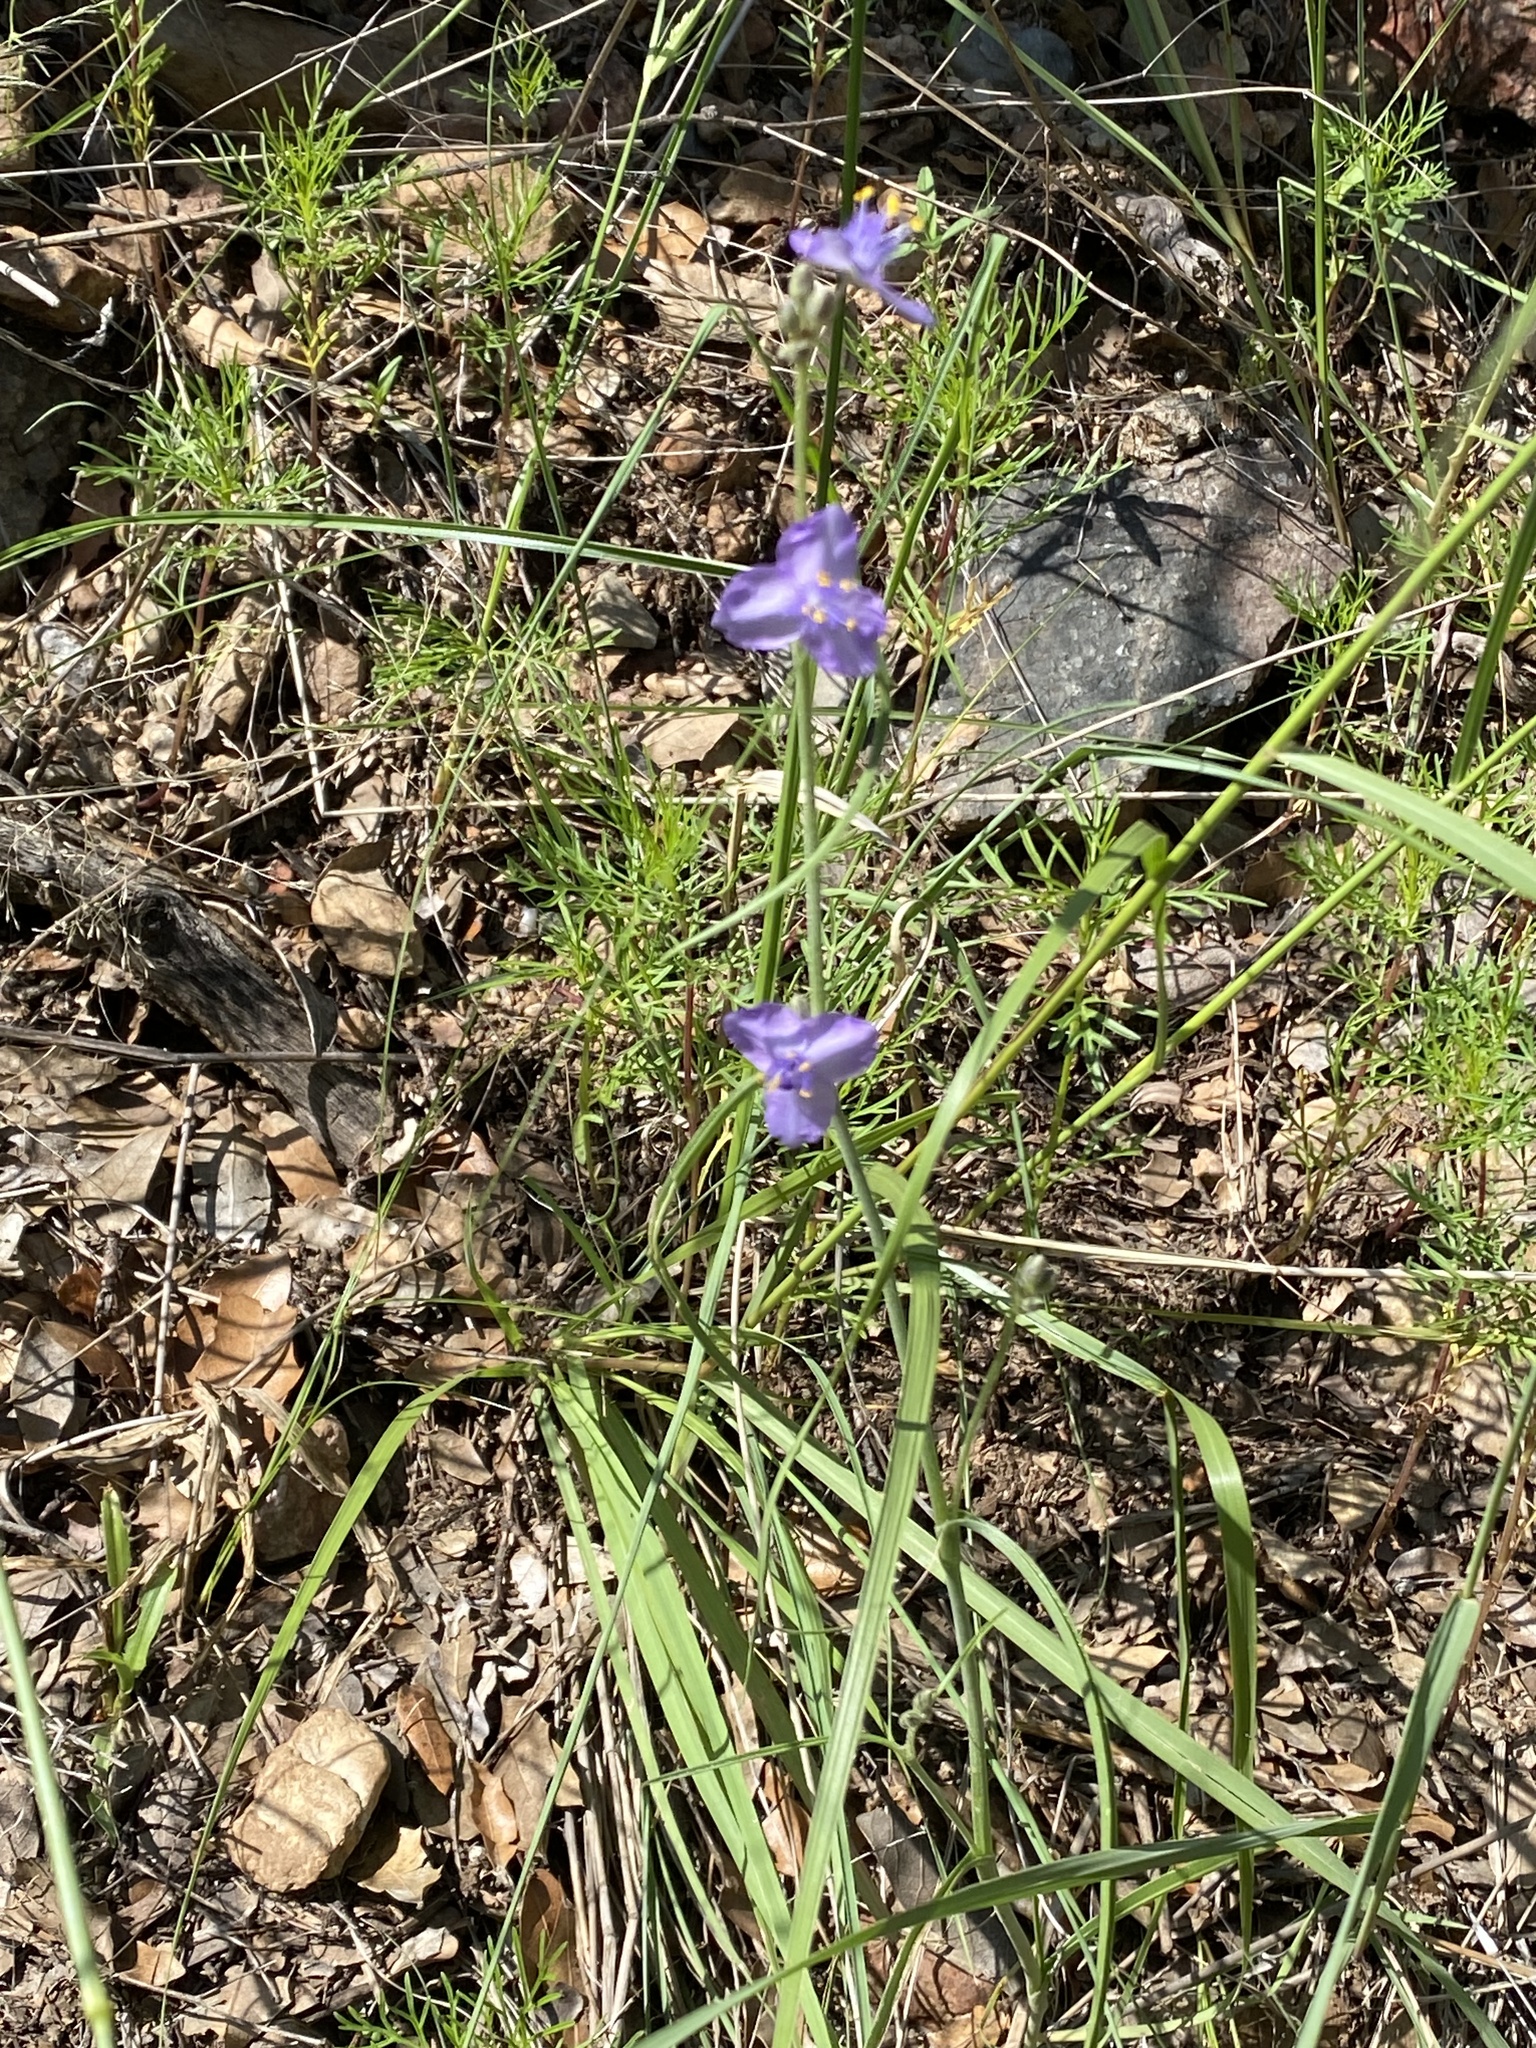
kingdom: Plantae
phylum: Tracheophyta
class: Liliopsida
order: Commelinales
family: Commelinaceae
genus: Tradescantia
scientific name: Tradescantia pinetorum
